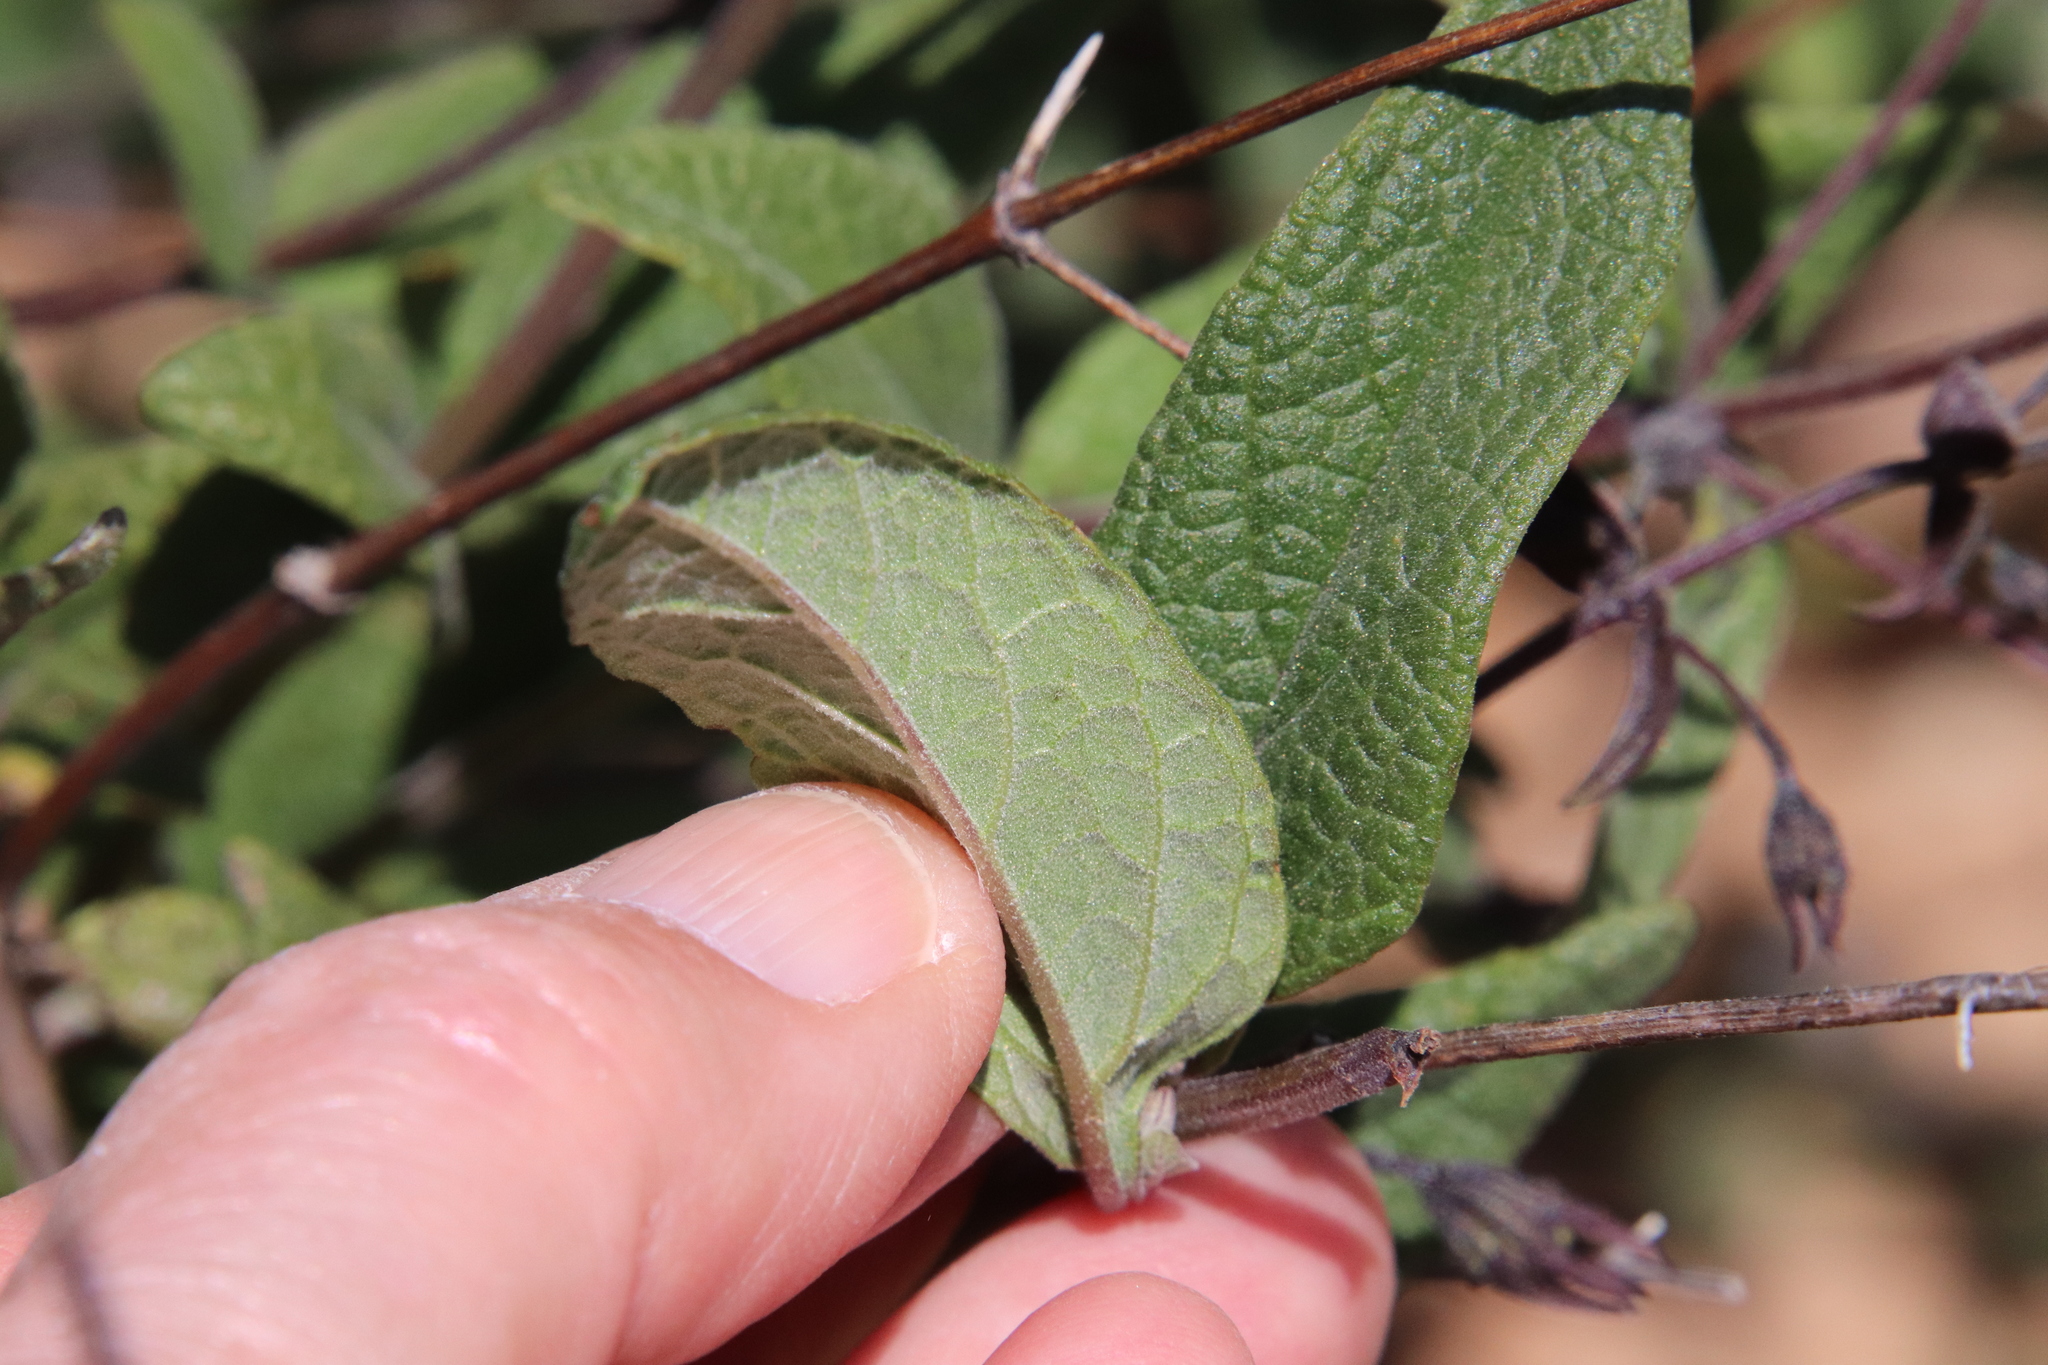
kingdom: Plantae
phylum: Tracheophyta
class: Magnoliopsida
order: Lamiales
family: Lamiaceae
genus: Lepechinia
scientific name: Lepechinia ganderi
